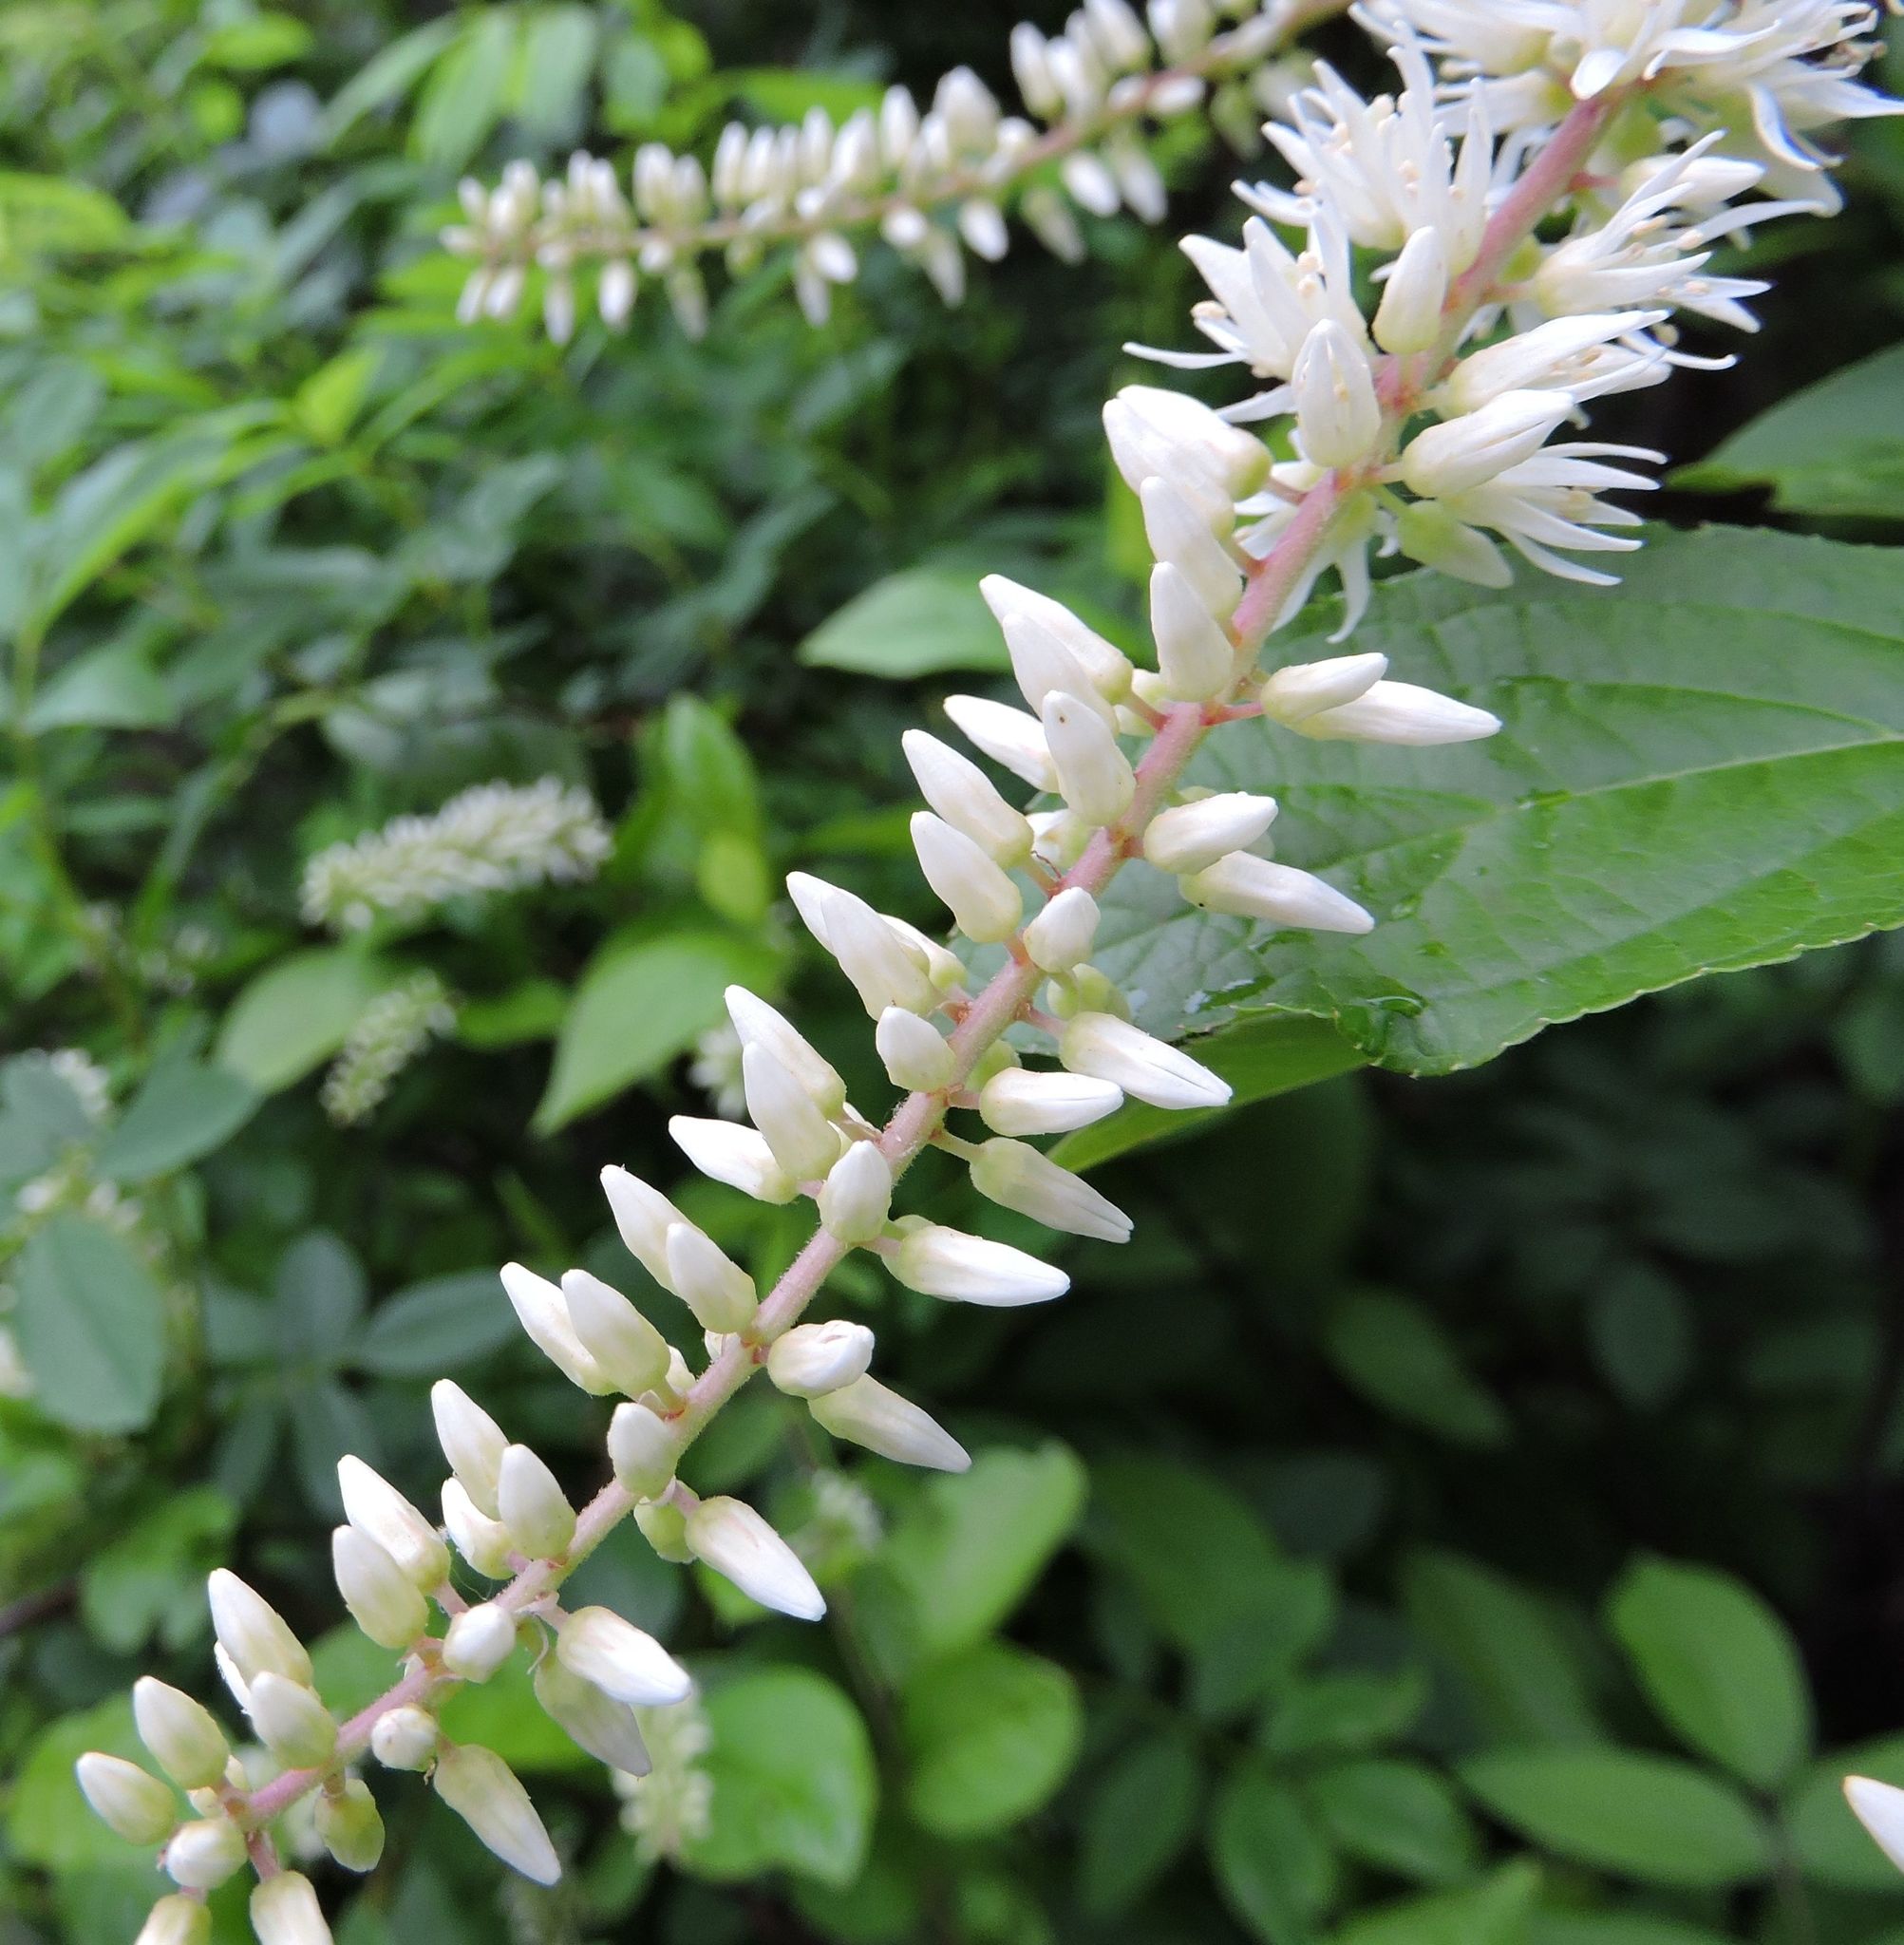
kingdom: Plantae
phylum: Tracheophyta
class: Magnoliopsida
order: Ericales
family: Clethraceae
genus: Clethra
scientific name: Clethra alnifolia
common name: Sweet pepperbush
